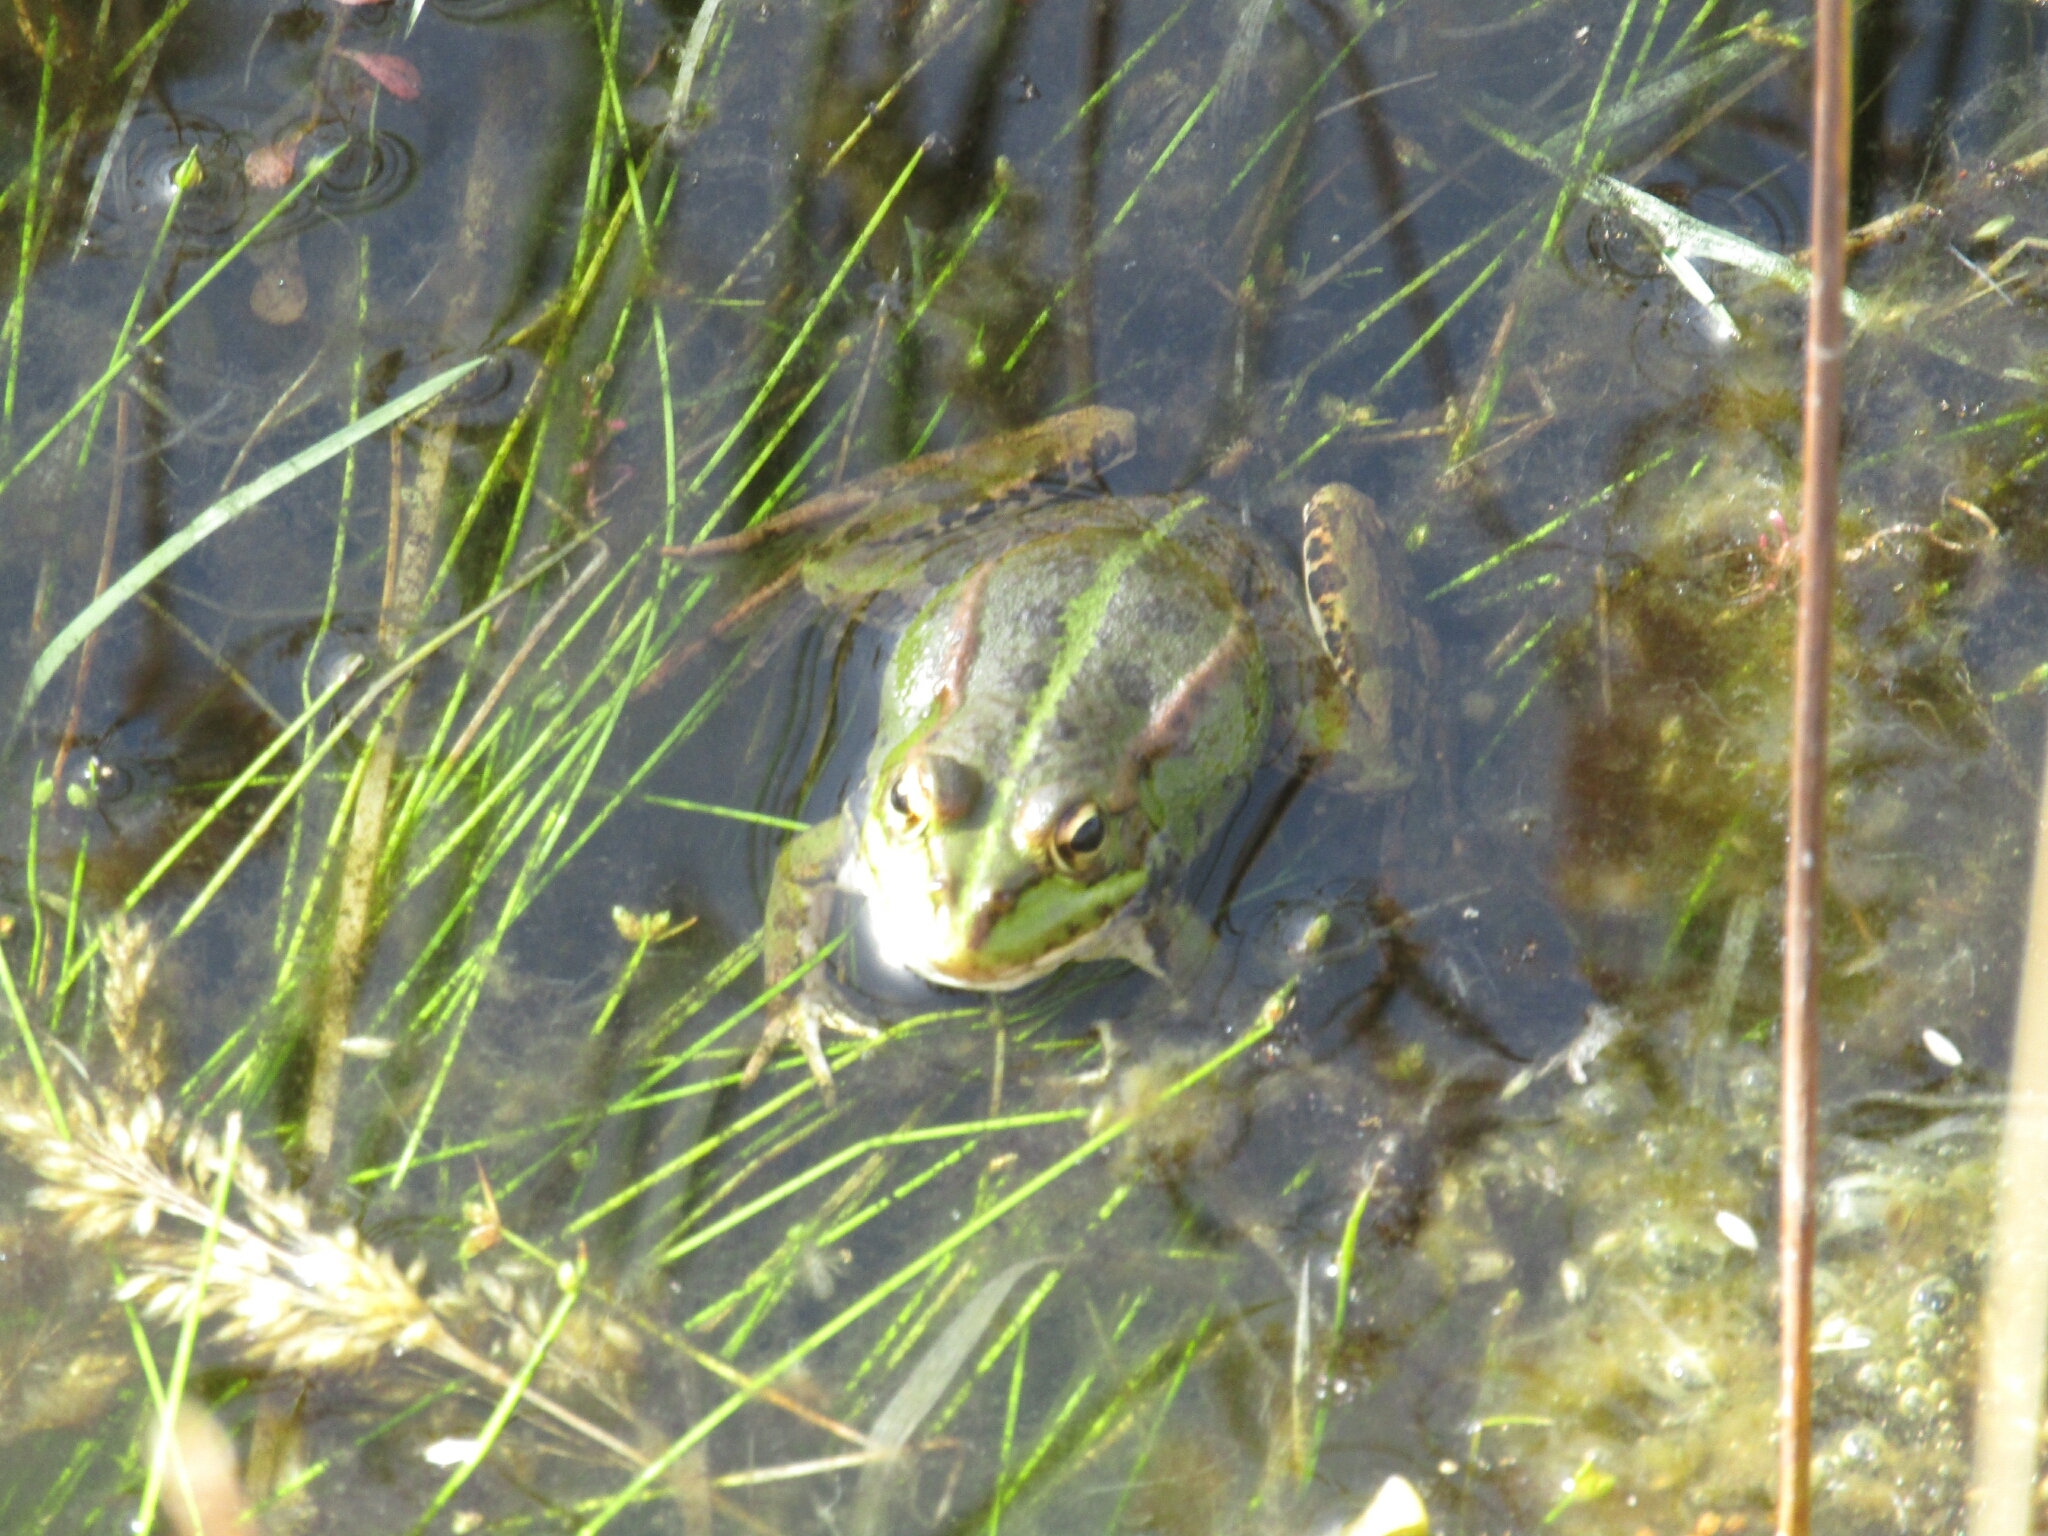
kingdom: Animalia
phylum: Chordata
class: Amphibia
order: Anura
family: Ranidae
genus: Pelophylax
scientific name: Pelophylax perezi
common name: Perez's frog
